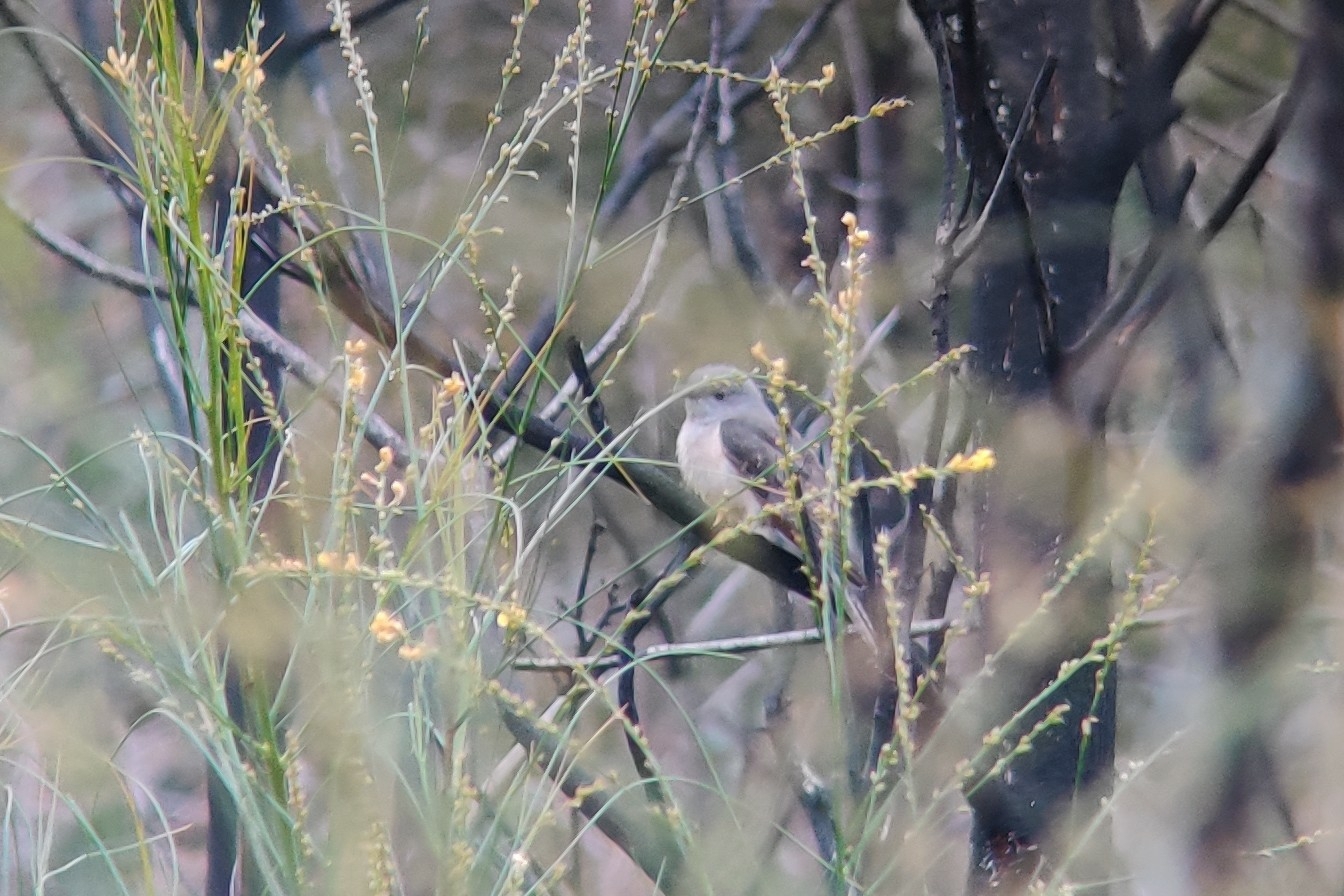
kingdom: Animalia
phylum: Chordata
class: Aves
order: Cuculiformes
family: Cuculidae
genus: Cacomantis
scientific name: Cacomantis variolosus
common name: Brush cuckoo
